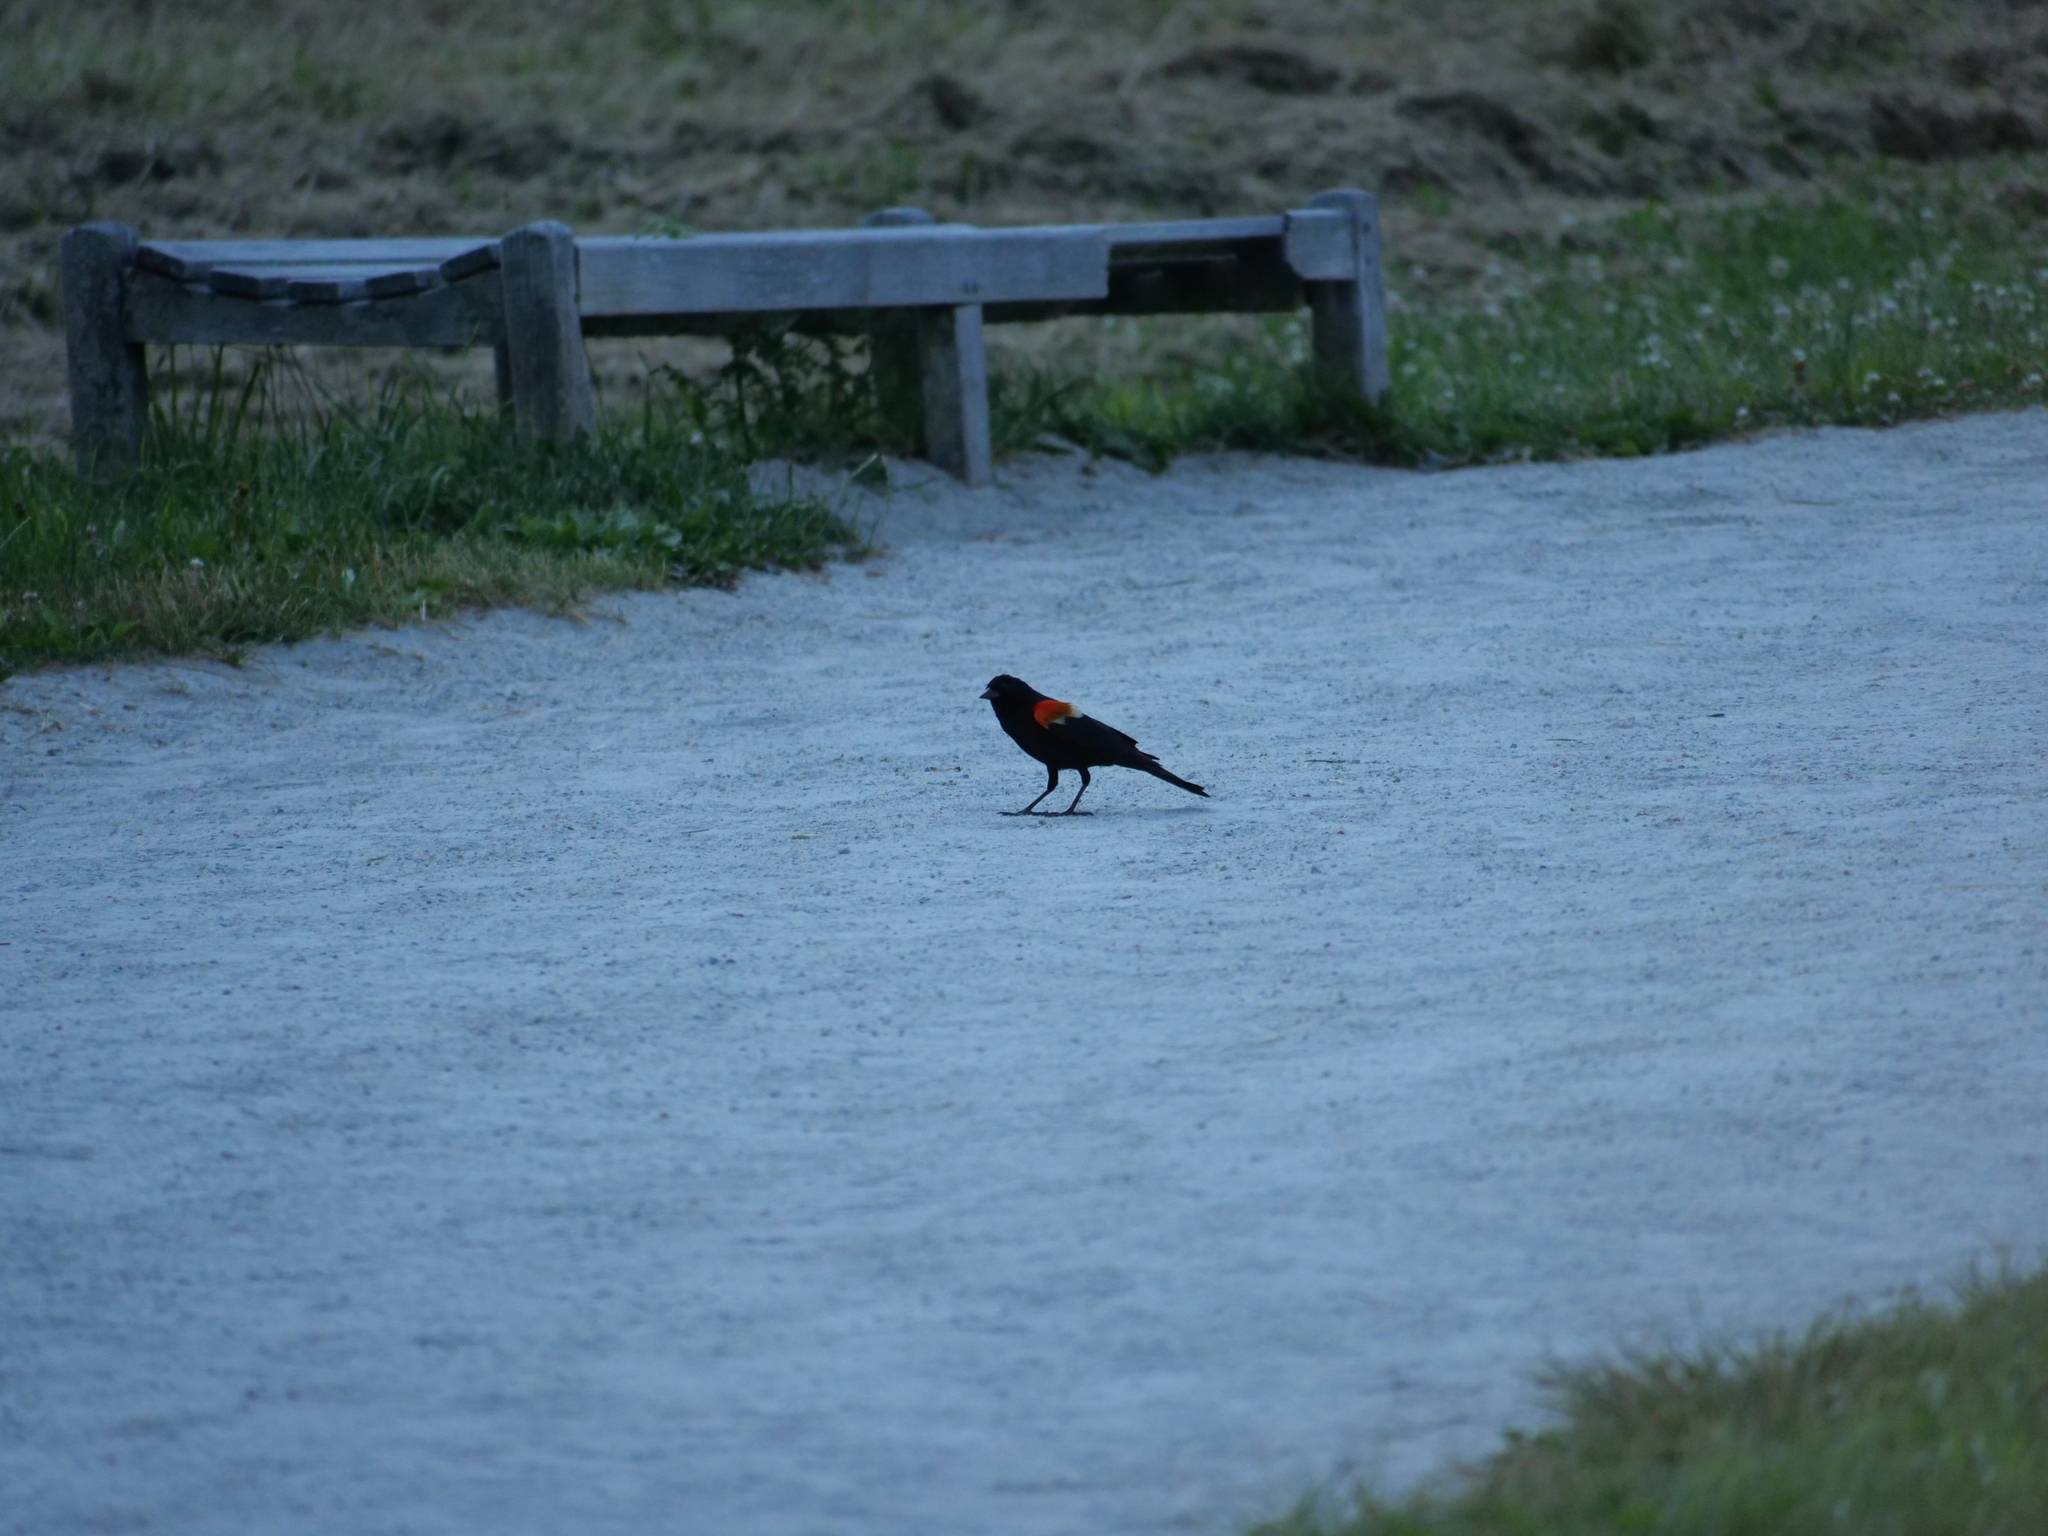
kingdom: Animalia
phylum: Chordata
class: Aves
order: Passeriformes
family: Icteridae
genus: Agelaius
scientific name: Agelaius phoeniceus
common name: Red-winged blackbird
